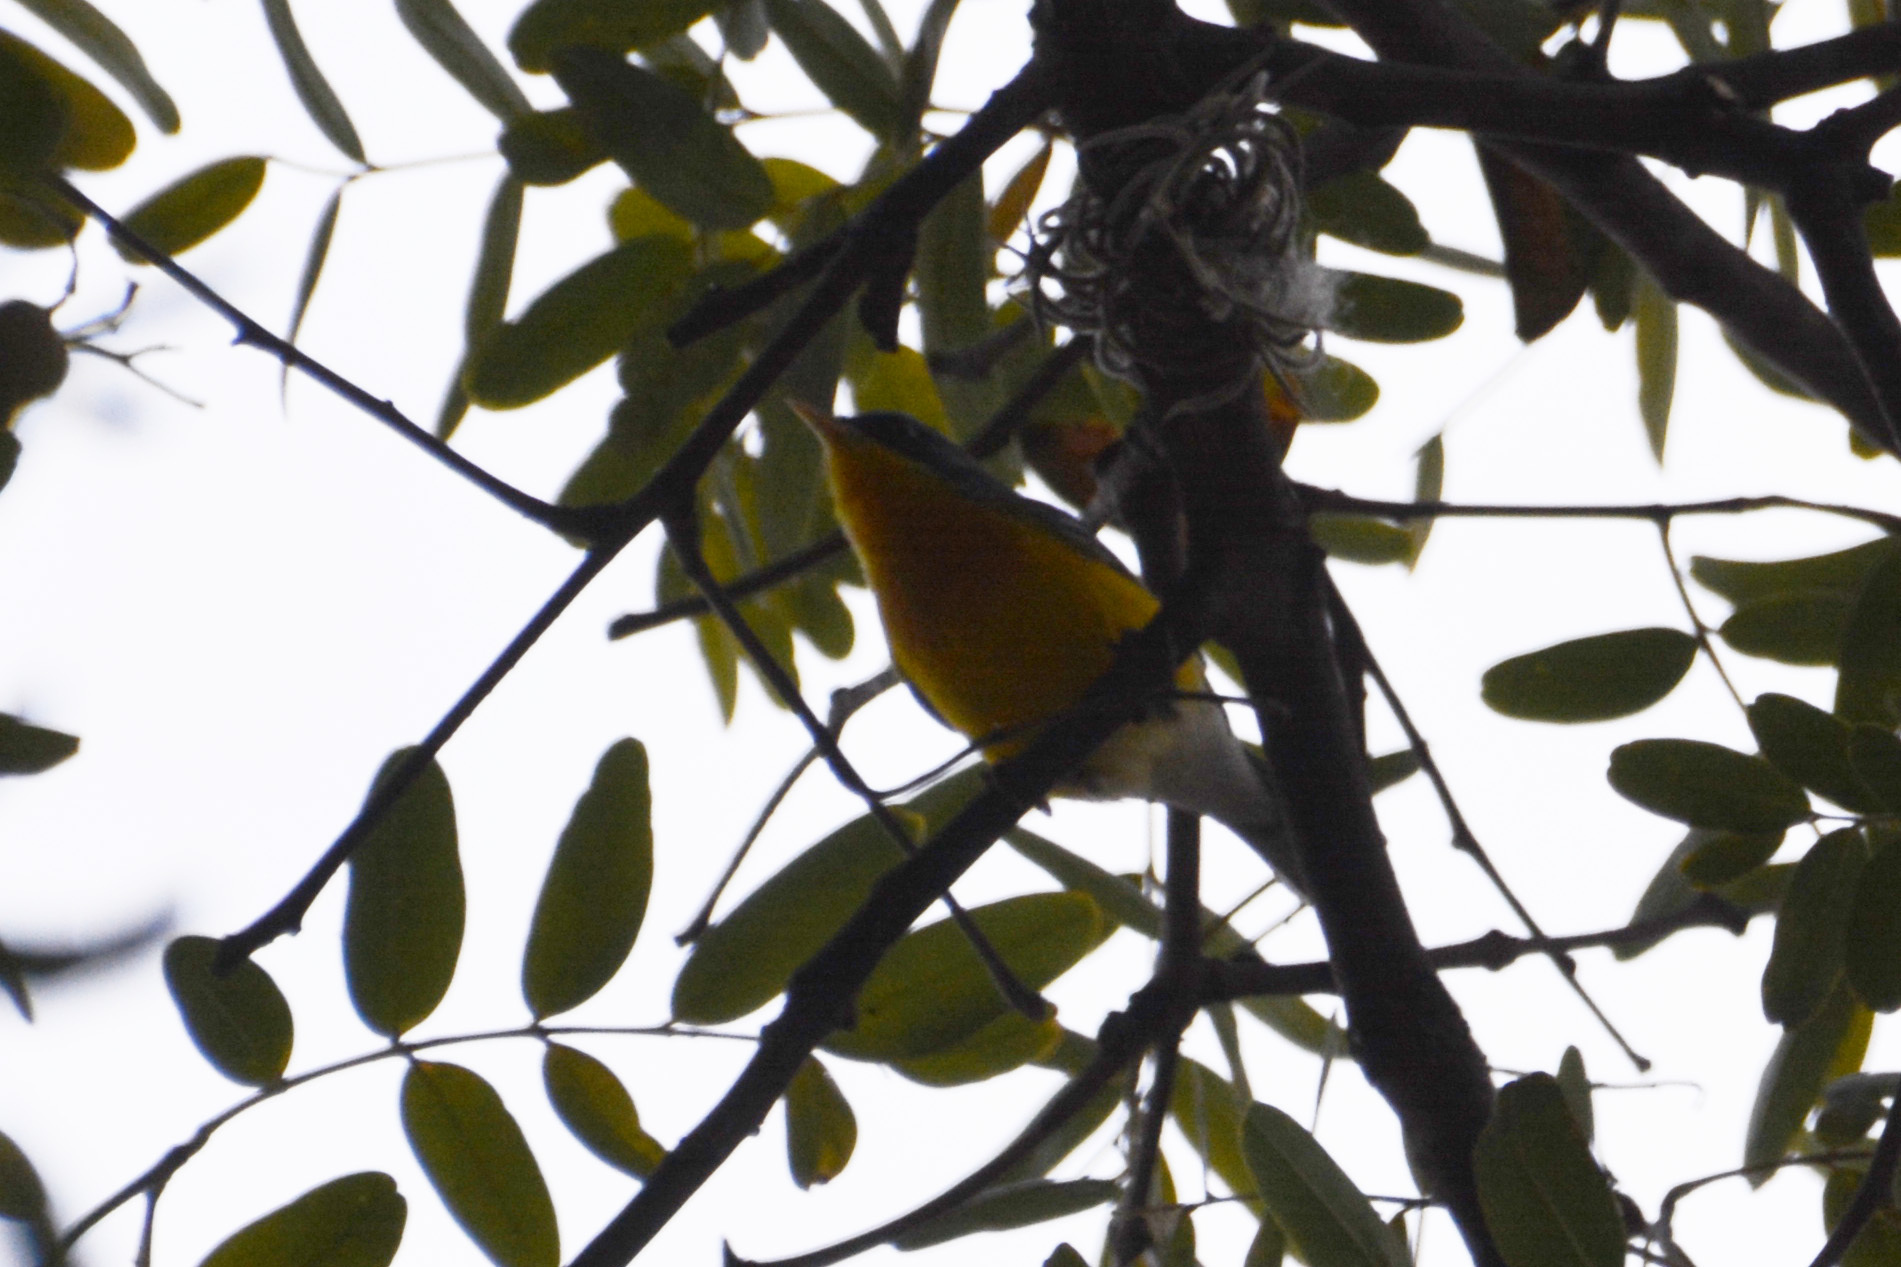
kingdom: Animalia
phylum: Chordata
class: Aves
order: Passeriformes
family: Parulidae
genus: Setophaga
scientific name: Setophaga pitiayumi
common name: Tropical parula
